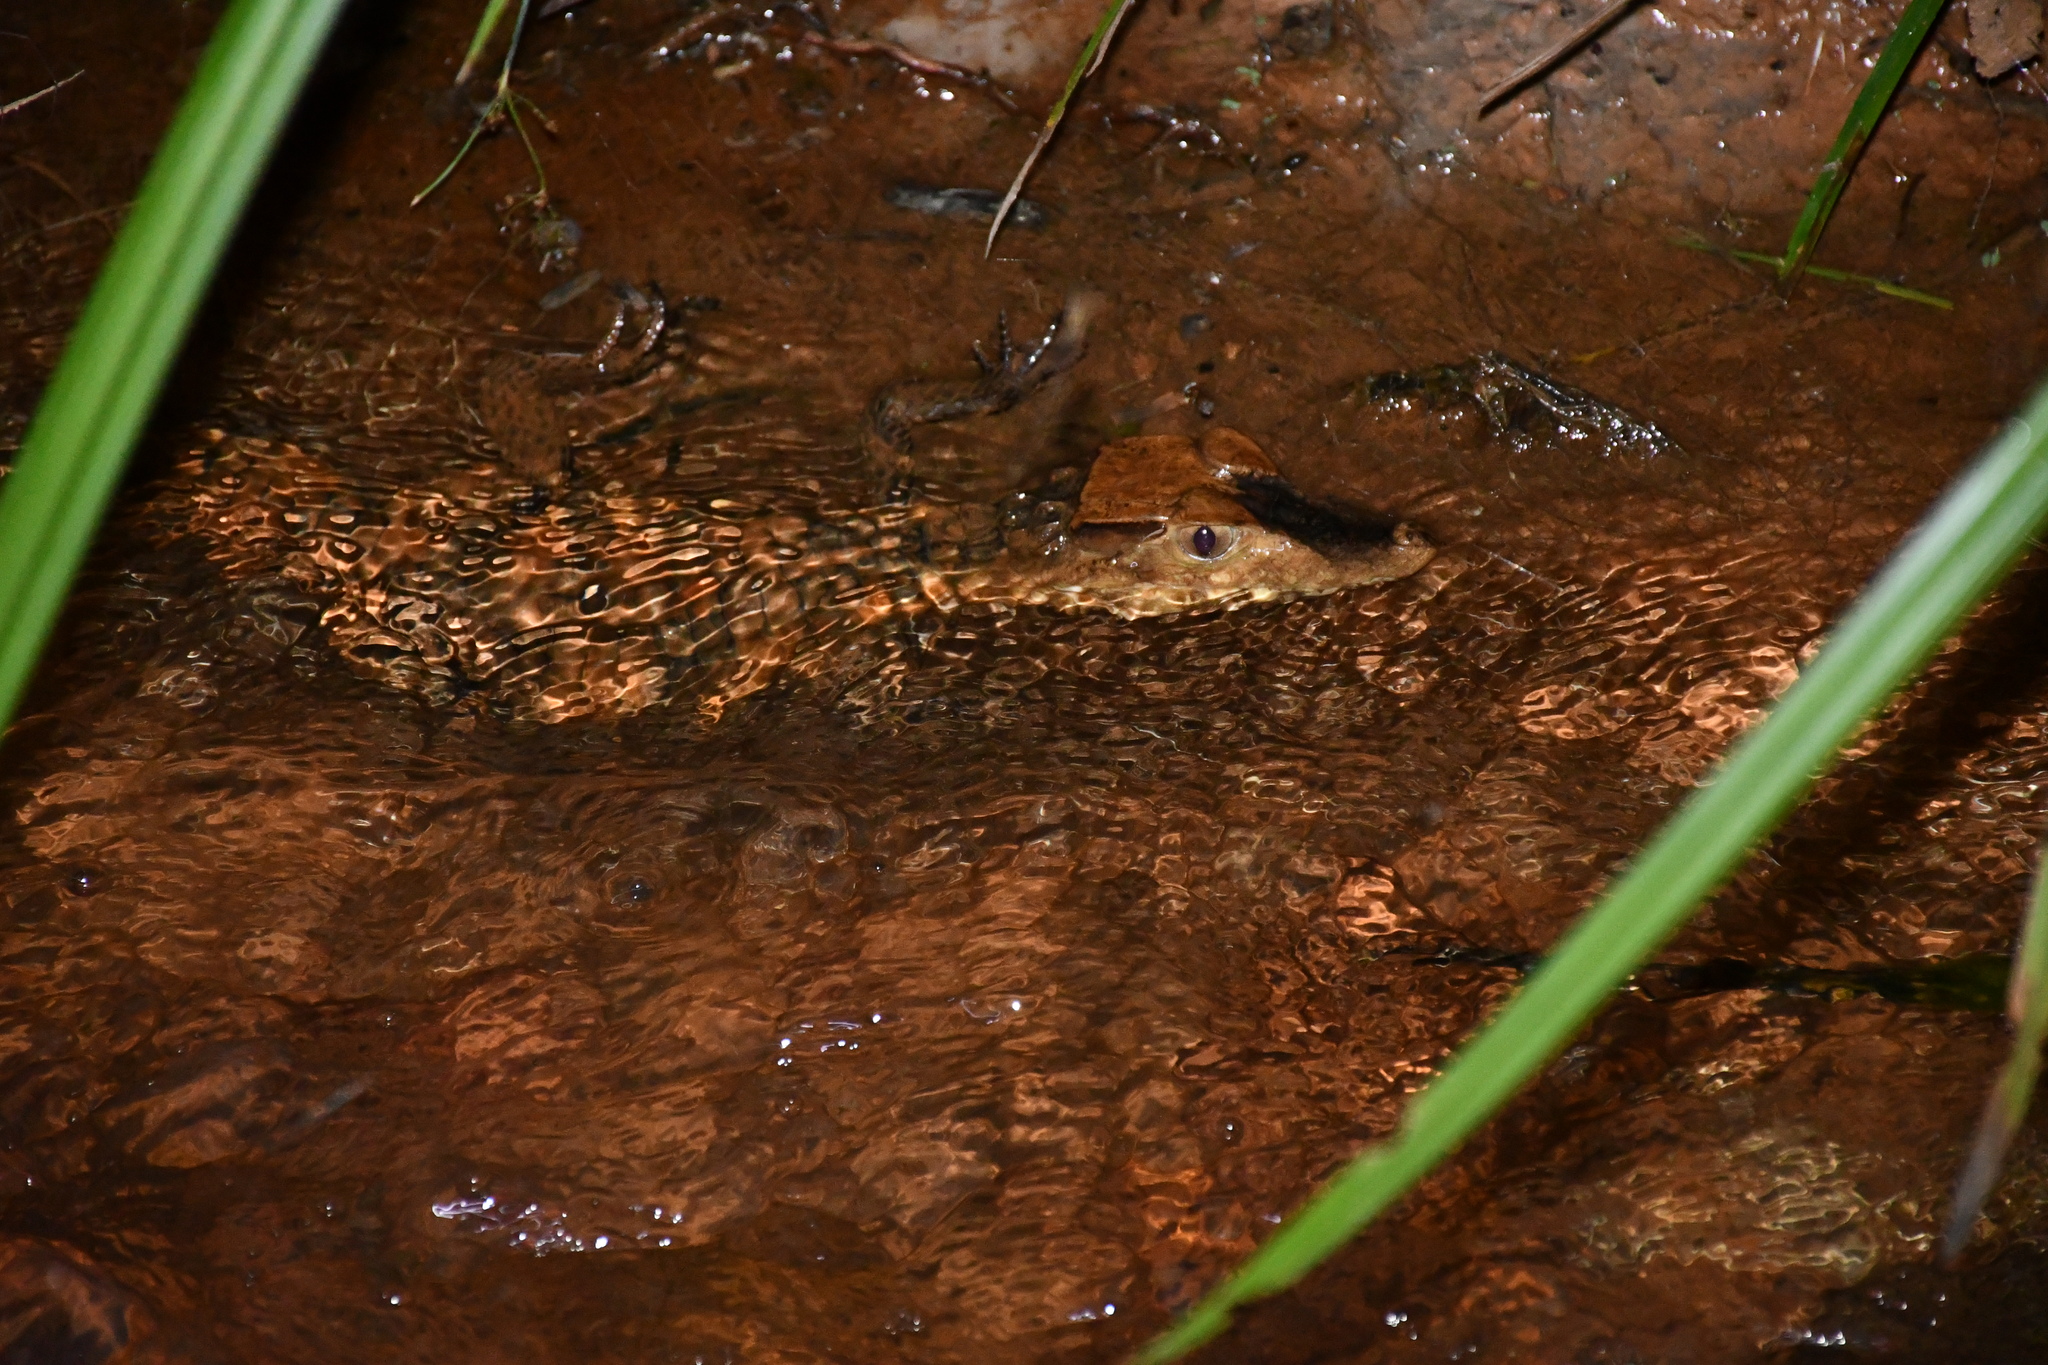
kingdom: Animalia
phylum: Chordata
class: Crocodylia
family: Alligatoridae
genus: Paleosuchus
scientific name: Paleosuchus trigonatus
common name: Schneider's smooth-fronted caiman
